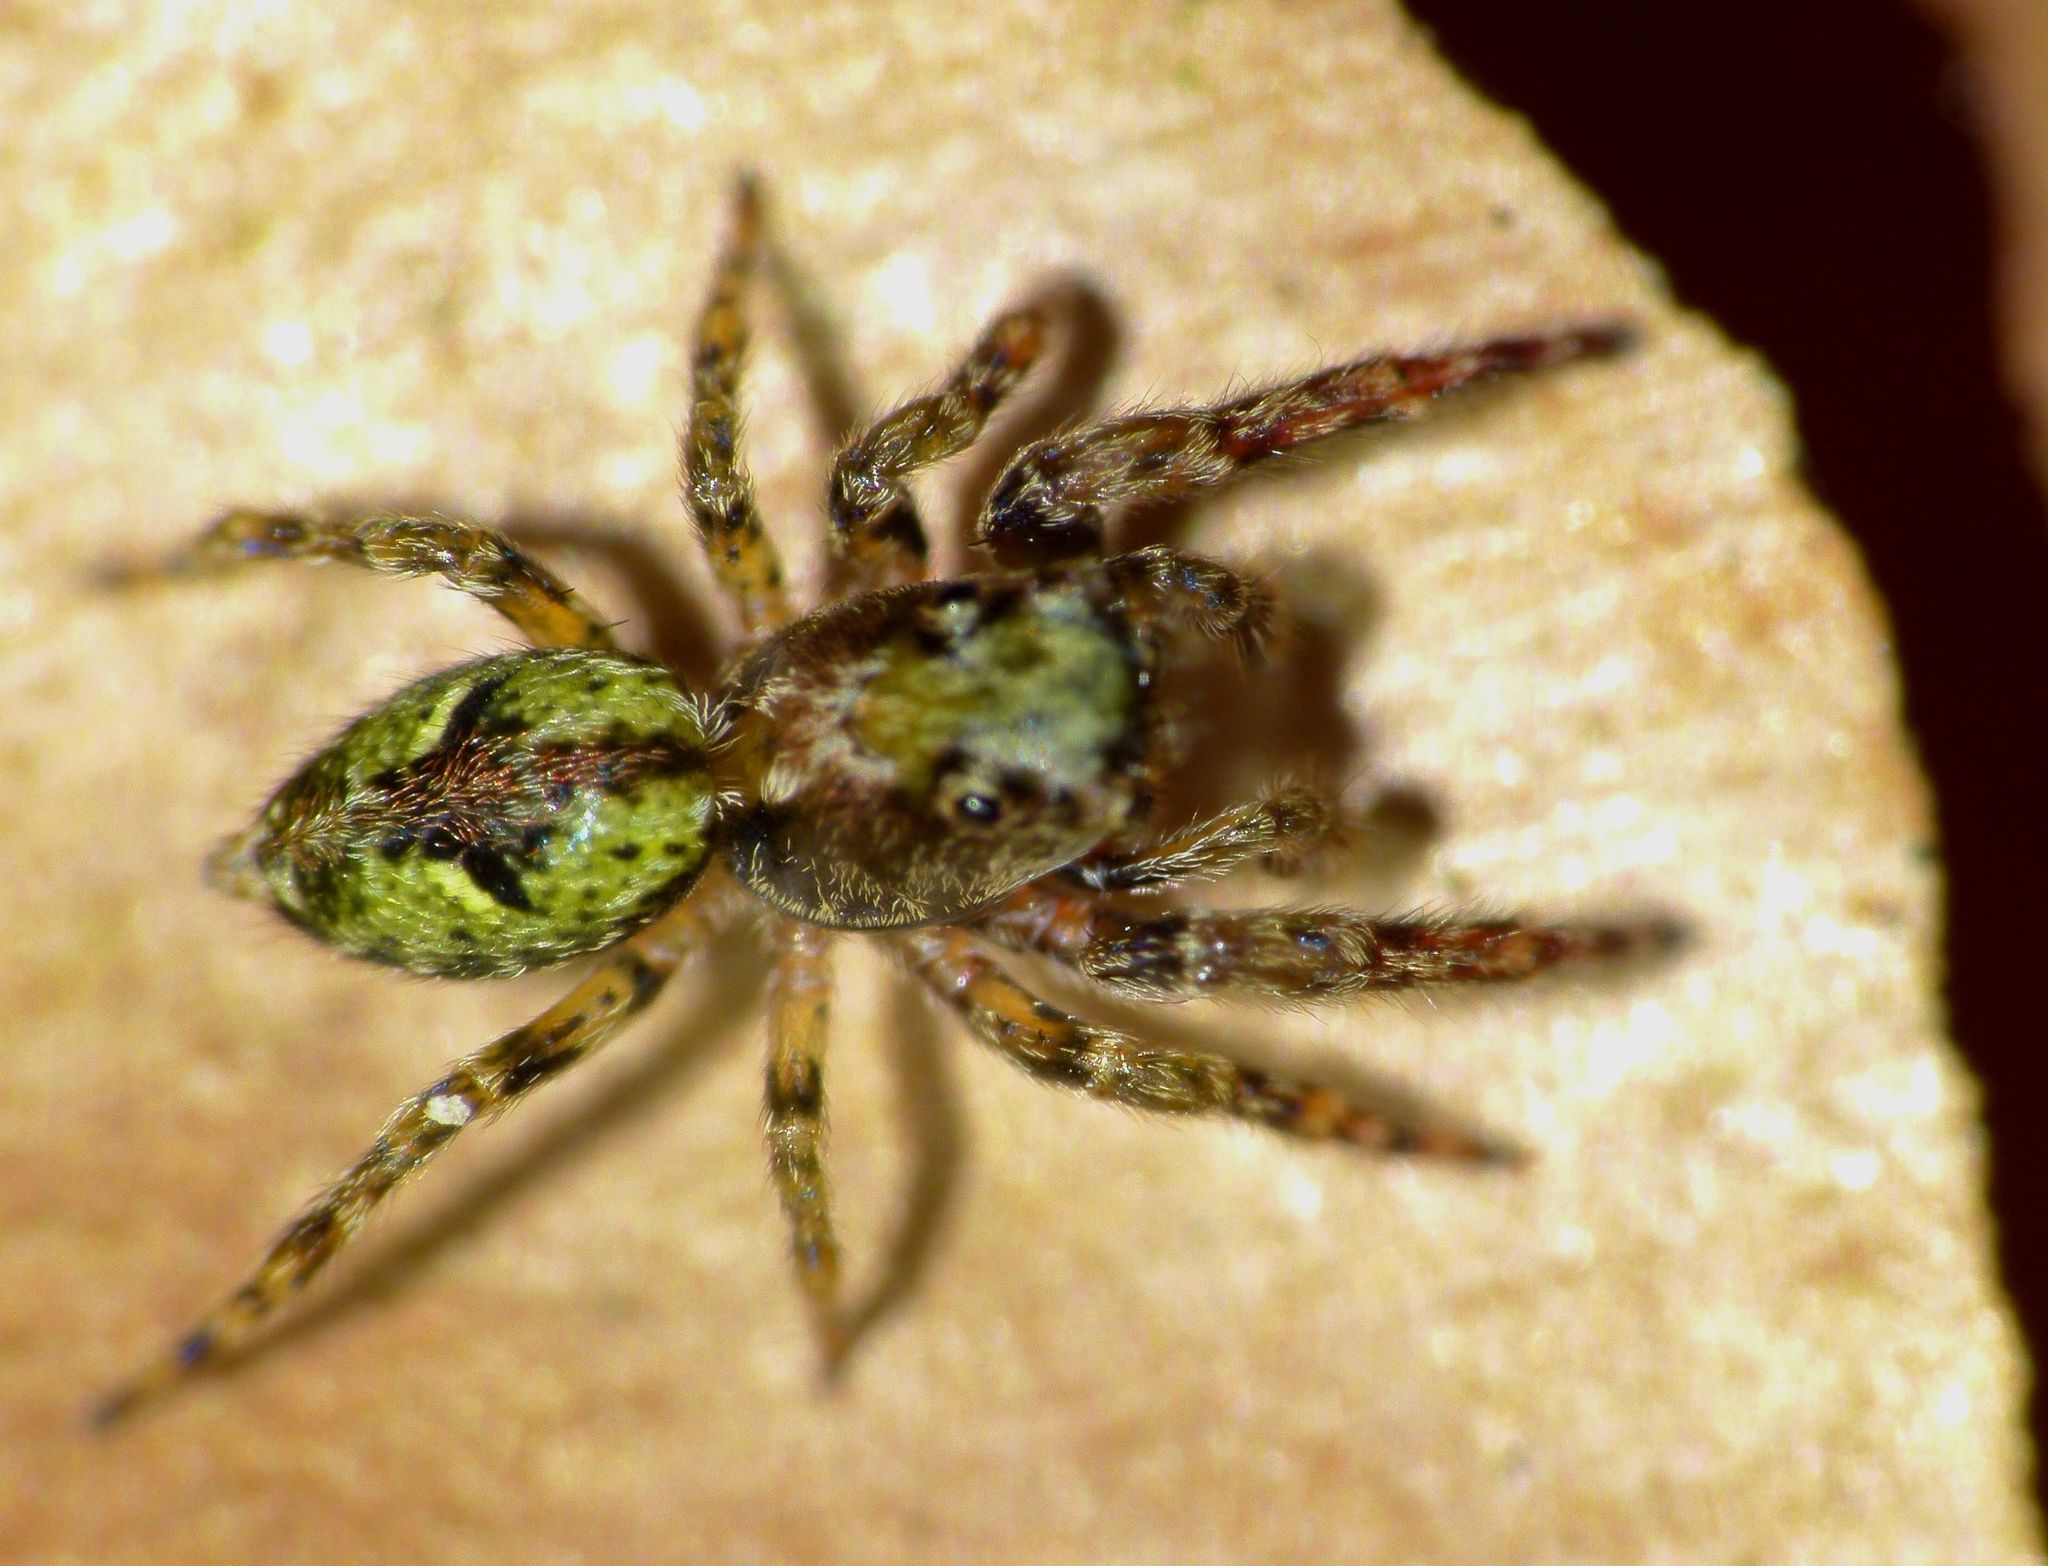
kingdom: Animalia
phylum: Arthropoda
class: Arachnida
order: Araneae
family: Salticidae
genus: Hinewaia
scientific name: Hinewaia embolica
